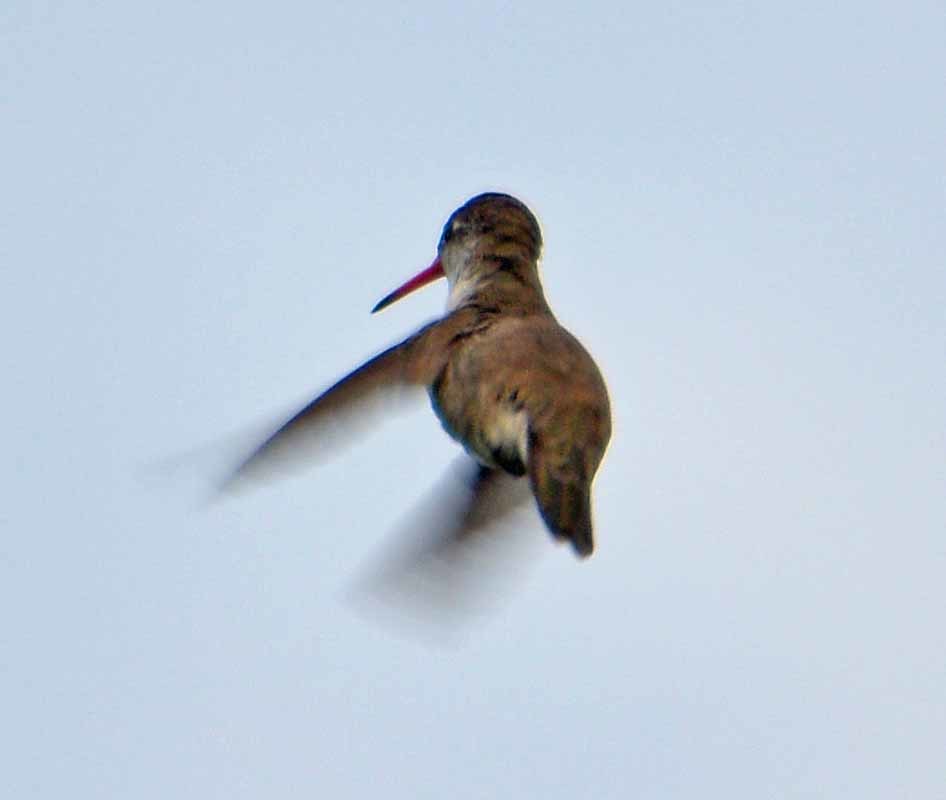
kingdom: Animalia
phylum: Chordata
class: Aves
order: Apodiformes
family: Trochilidae
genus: Leucolia
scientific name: Leucolia violiceps
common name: Violet-crowned hummingbird
